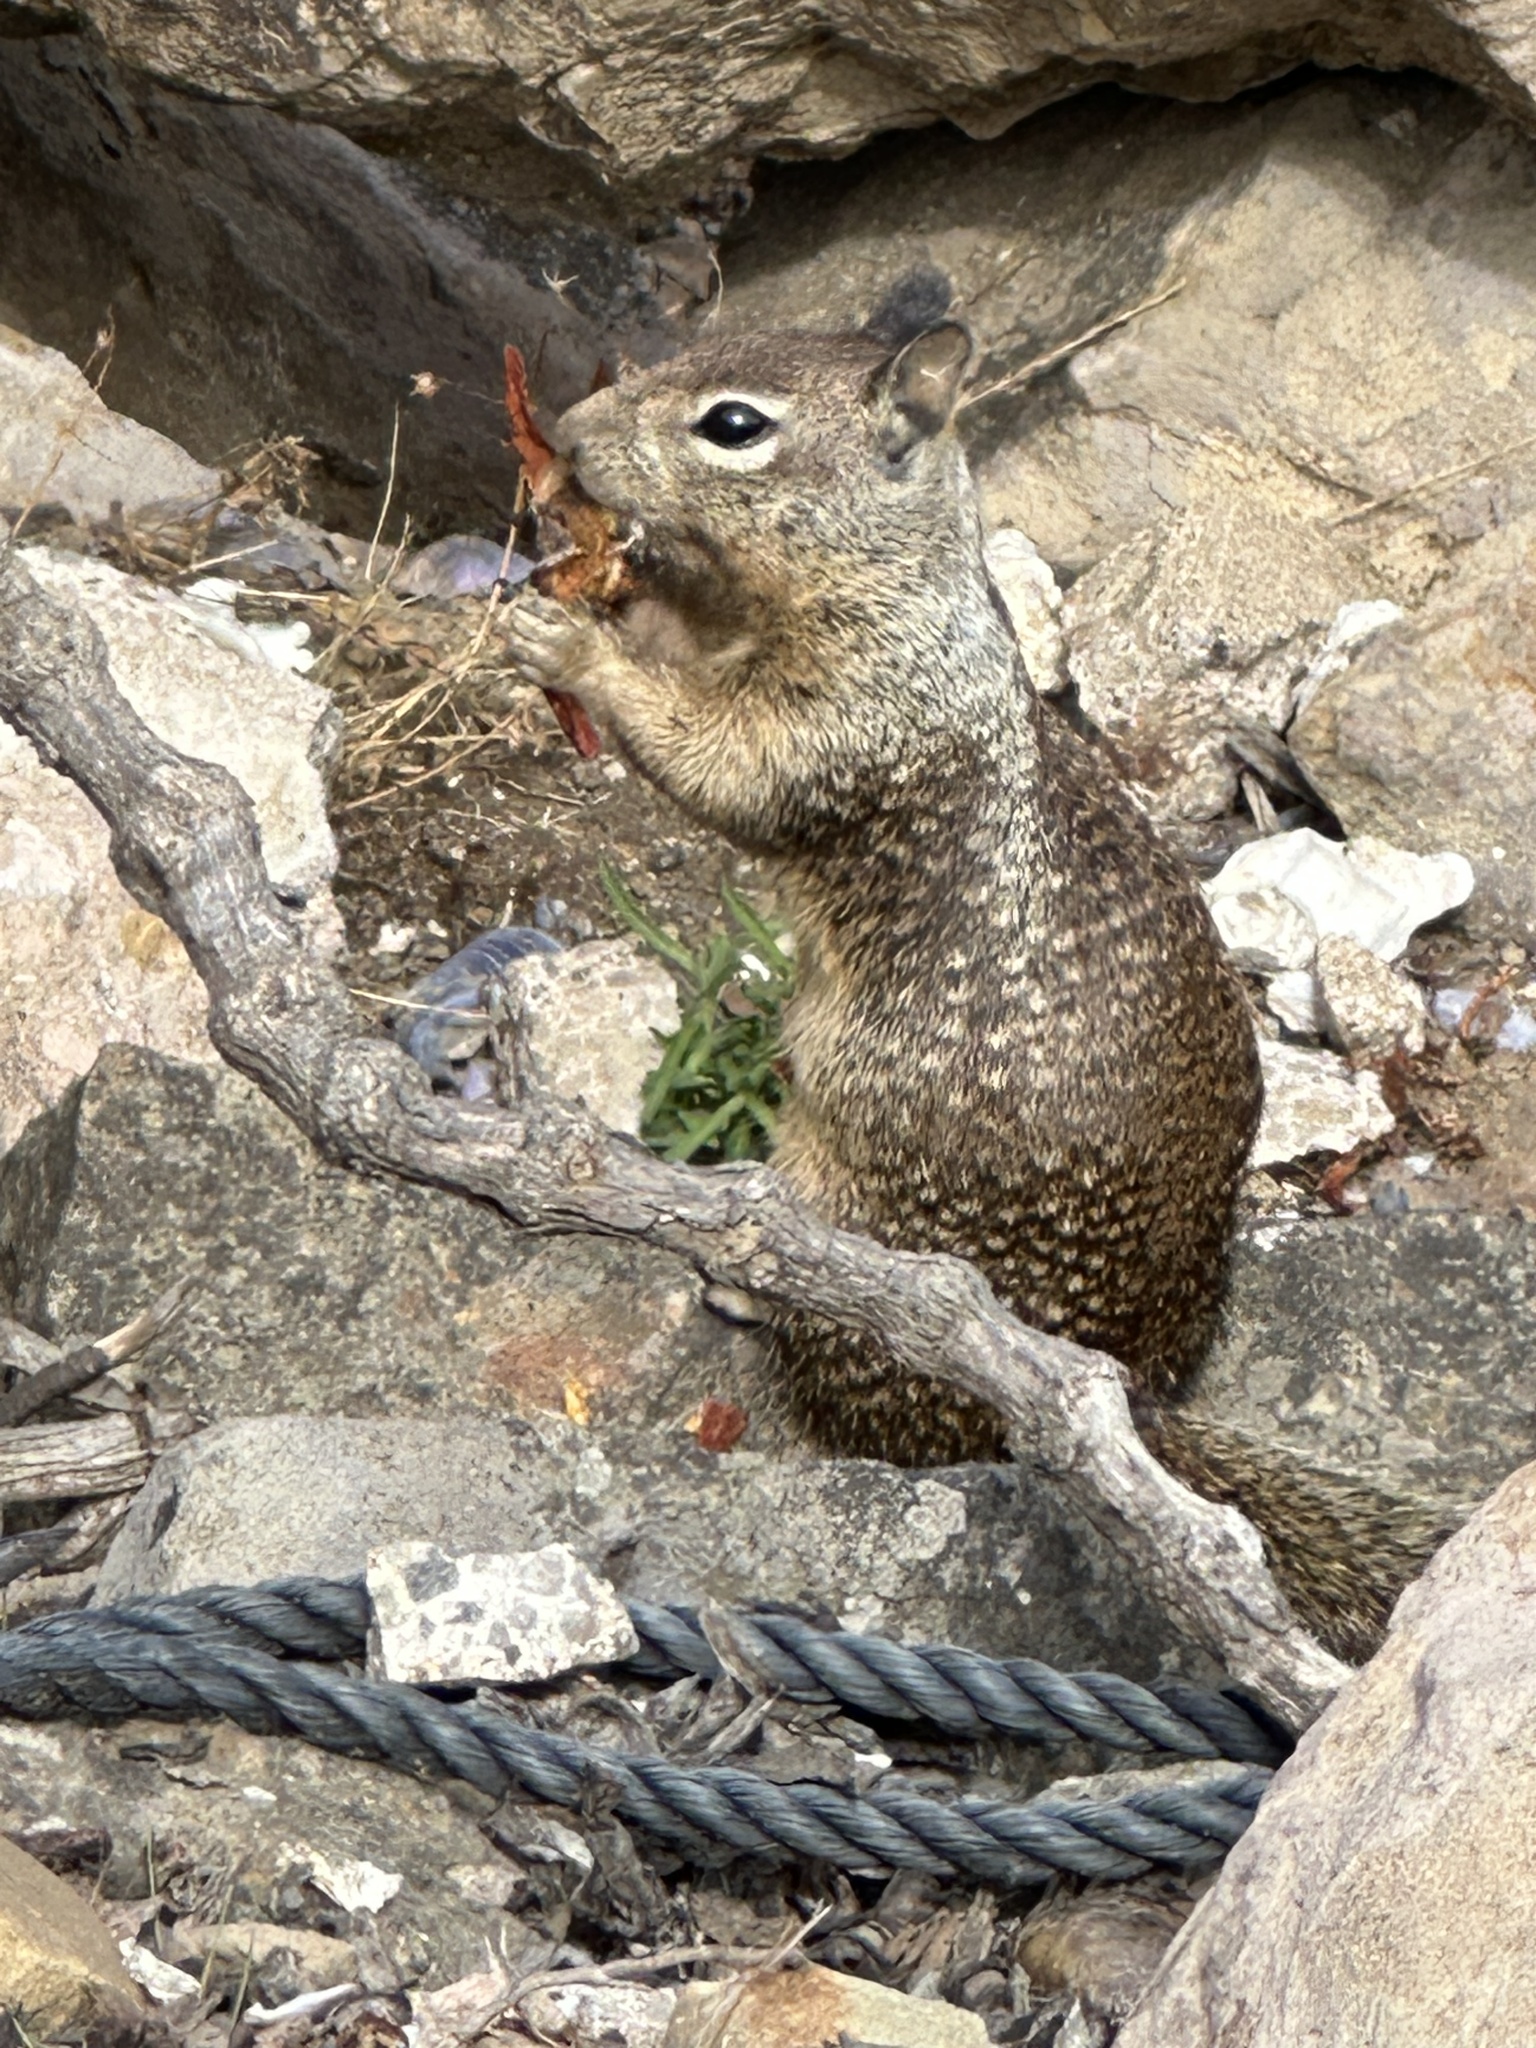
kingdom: Animalia
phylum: Chordata
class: Mammalia
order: Rodentia
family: Sciuridae
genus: Otospermophilus
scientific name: Otospermophilus beecheyi
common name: California ground squirrel
